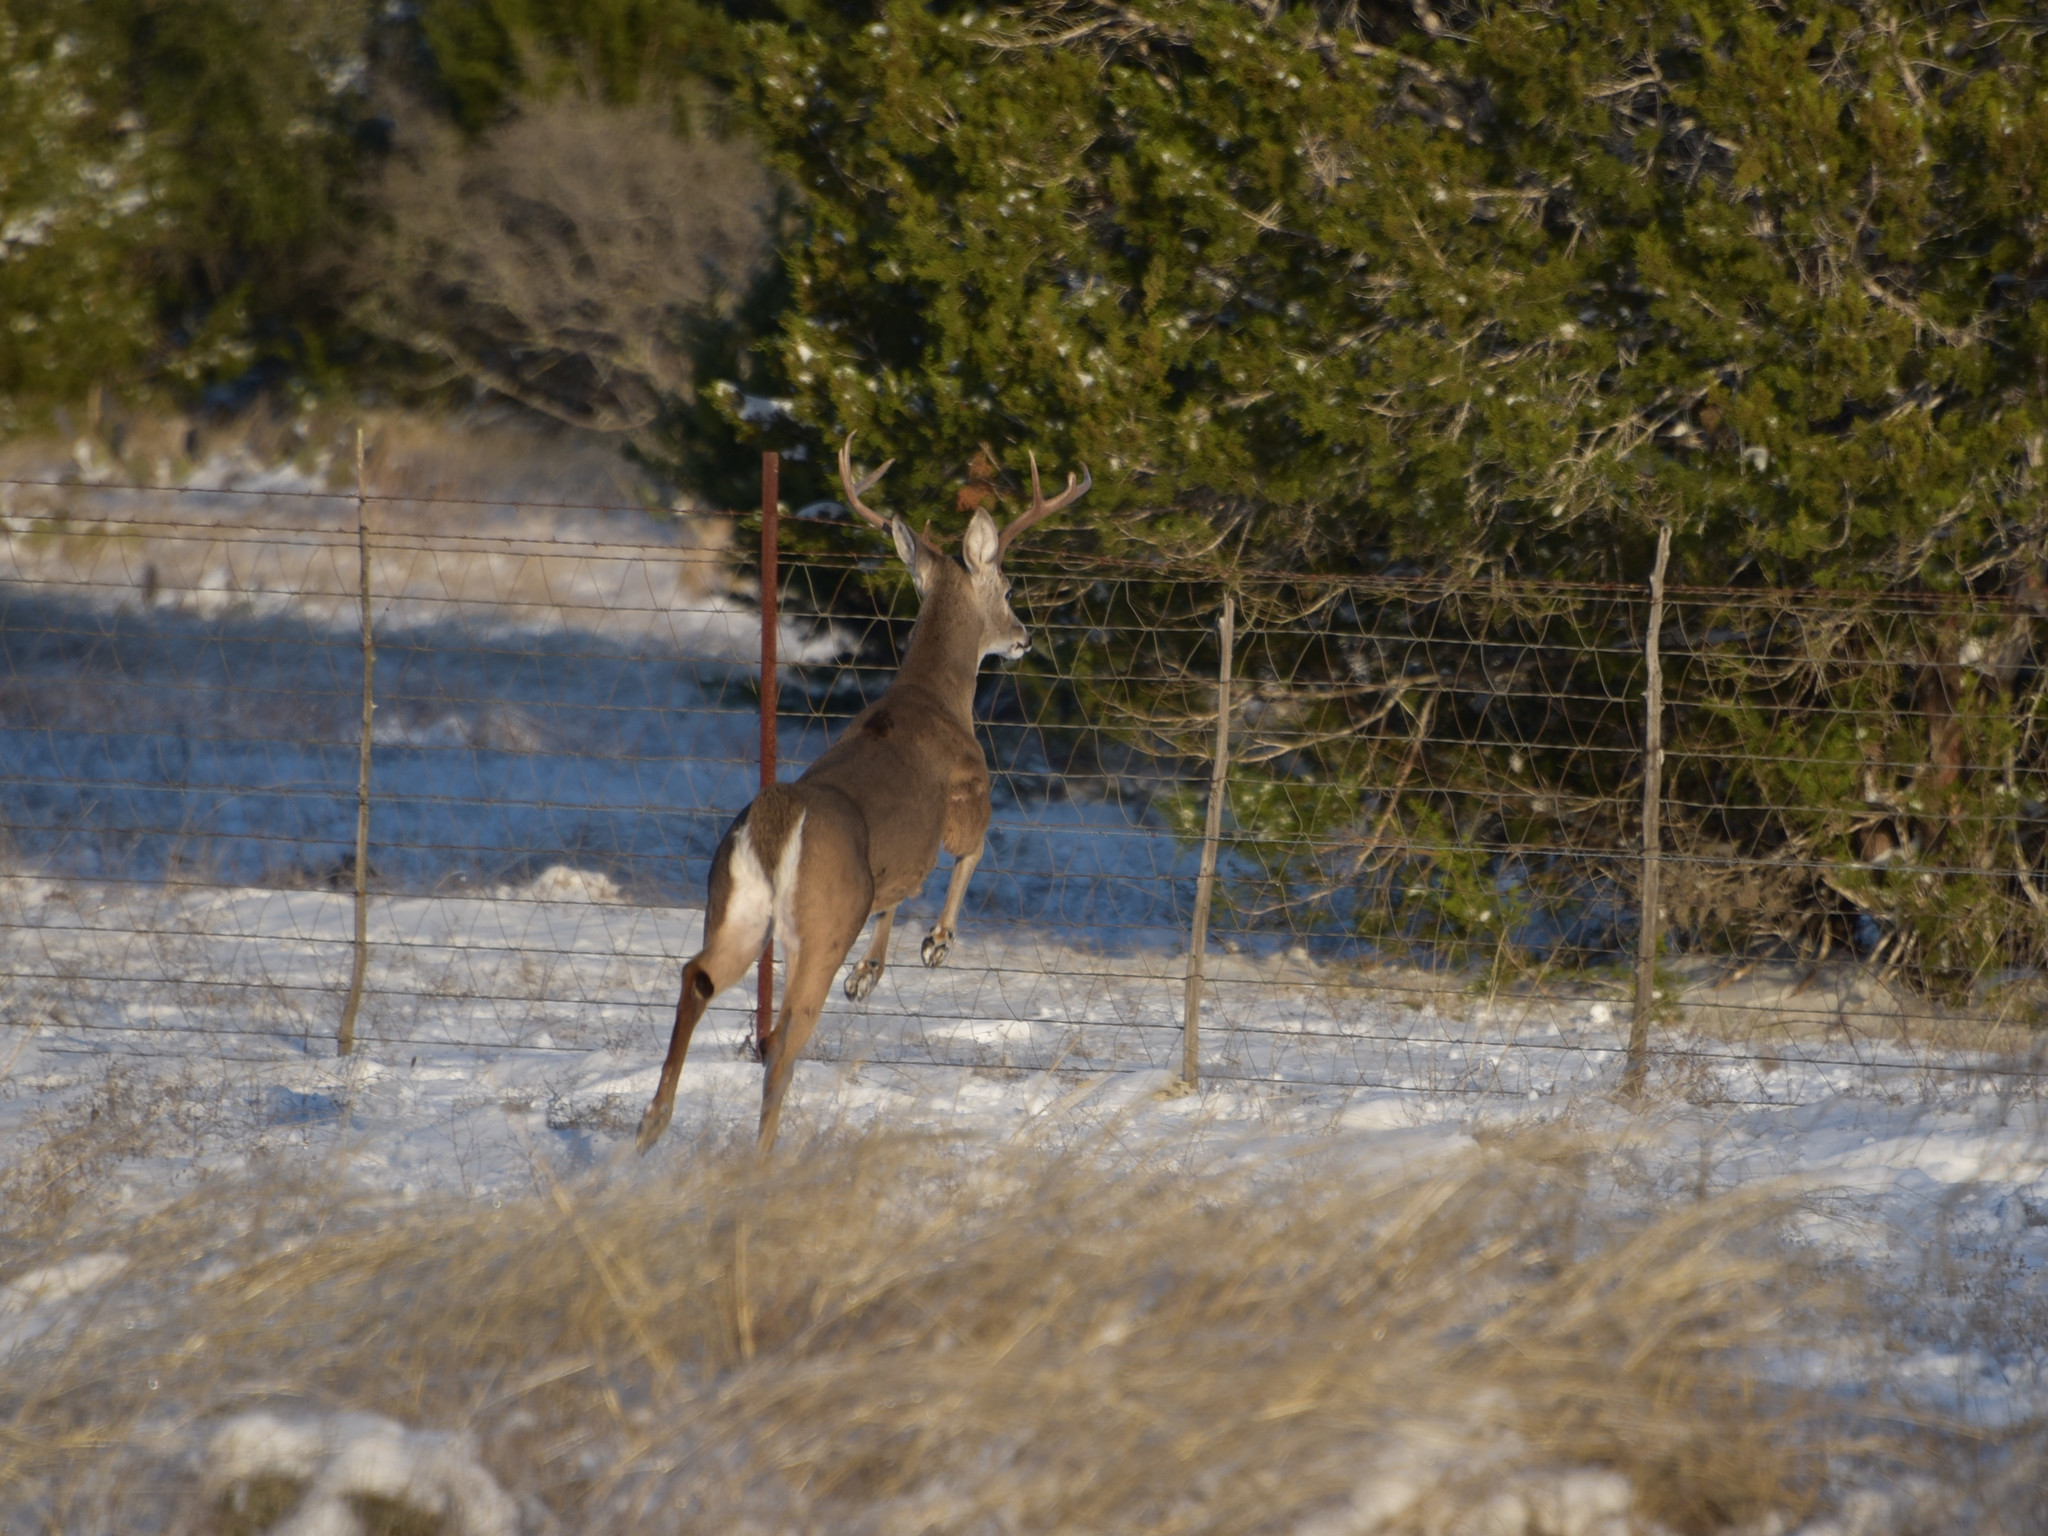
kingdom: Animalia
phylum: Chordata
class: Mammalia
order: Artiodactyla
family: Cervidae
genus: Odocoileus
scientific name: Odocoileus virginianus
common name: White-tailed deer
